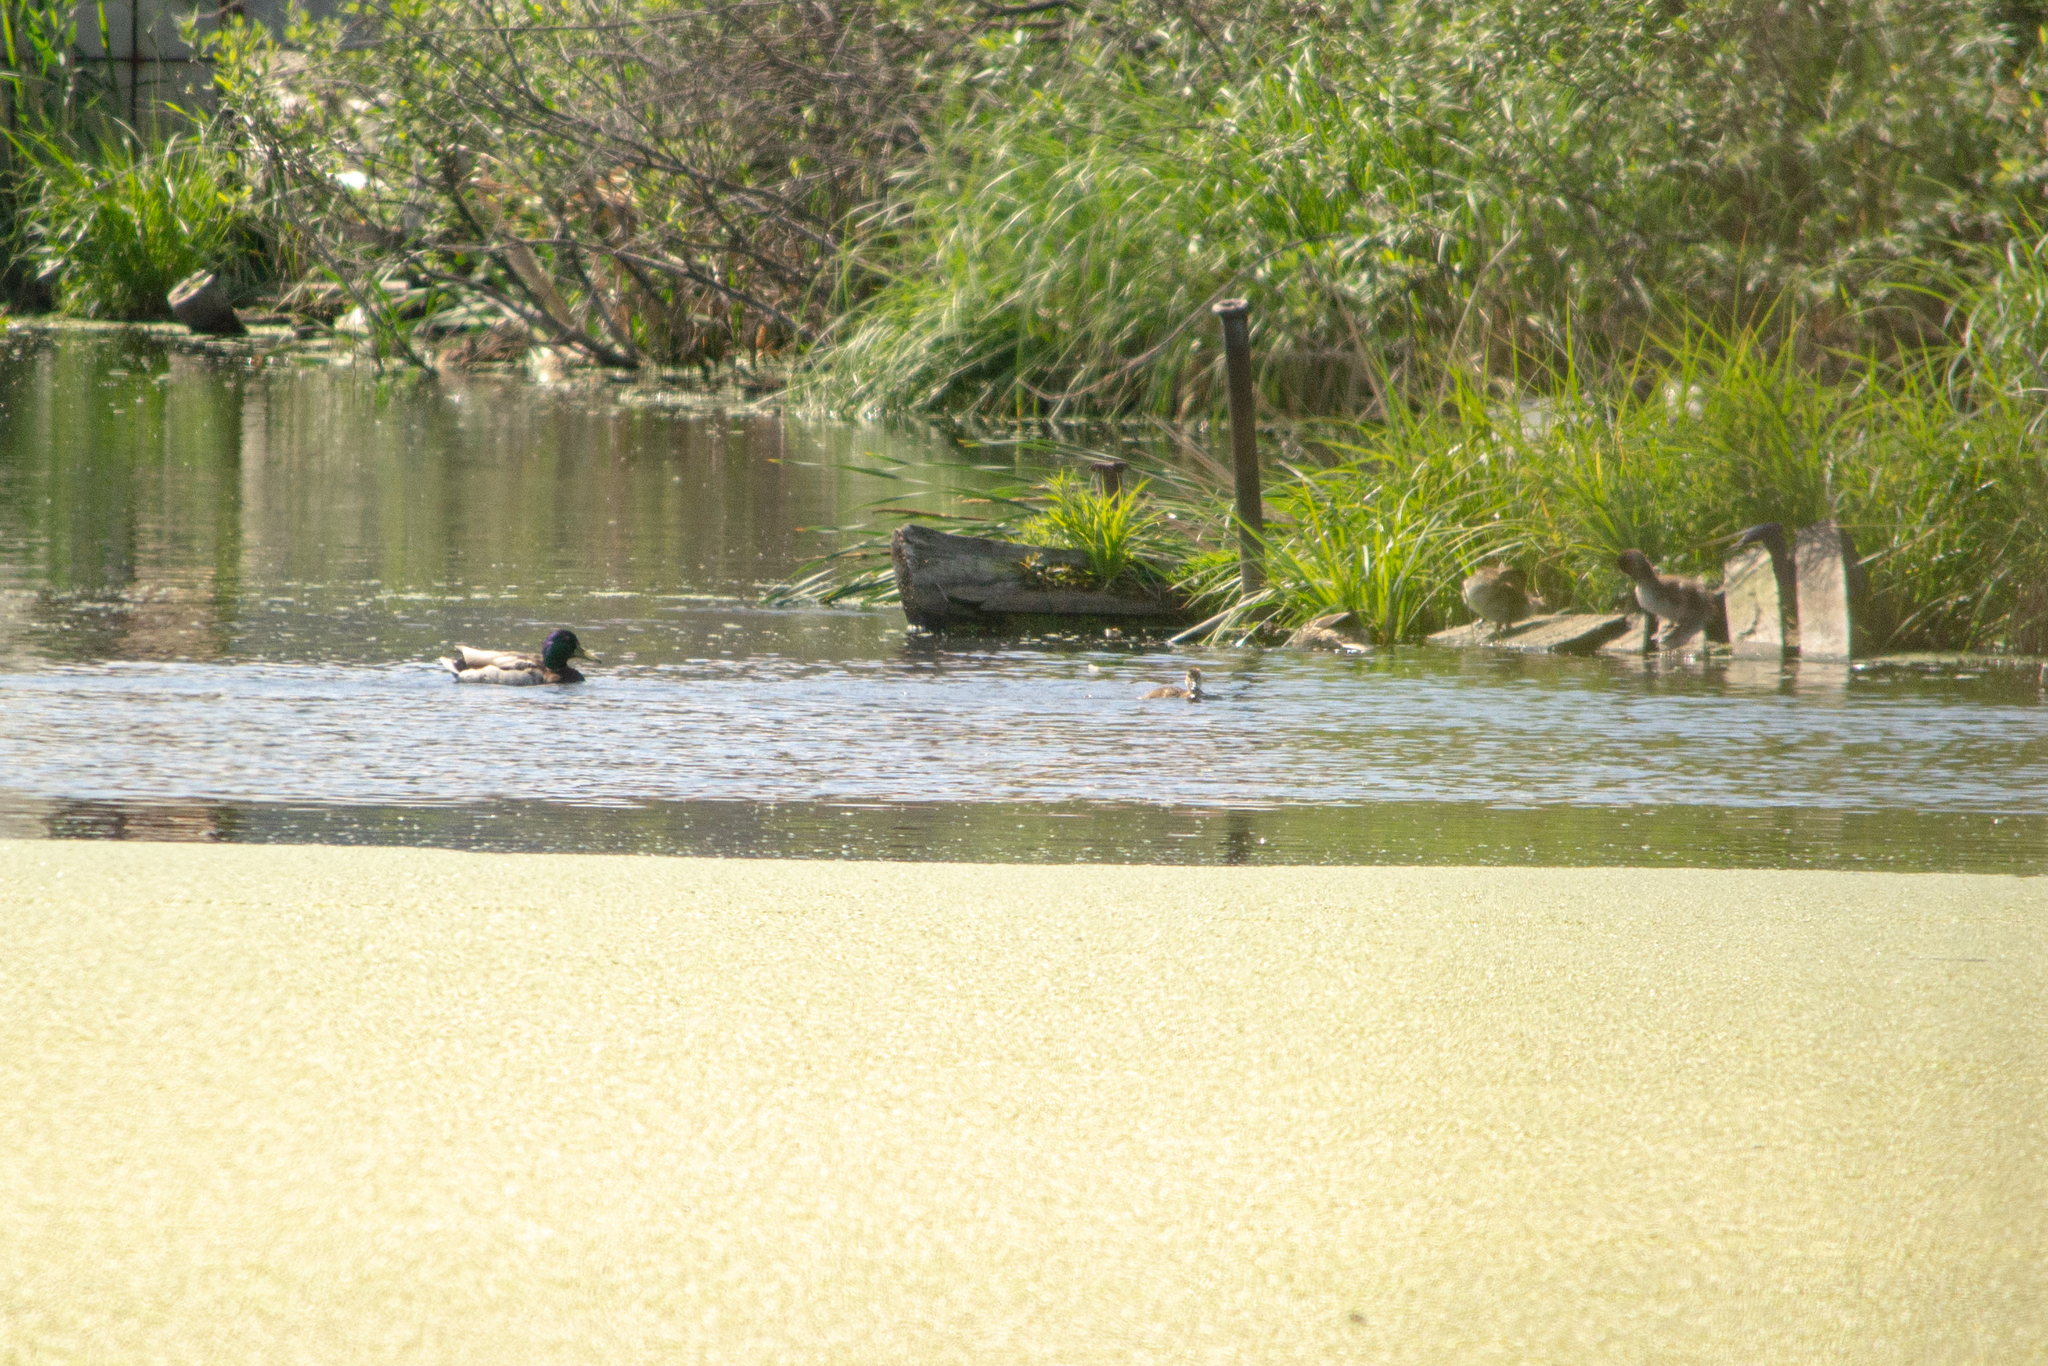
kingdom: Animalia
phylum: Chordata
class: Aves
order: Anseriformes
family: Anatidae
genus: Anas
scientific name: Anas platyrhynchos
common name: Mallard
